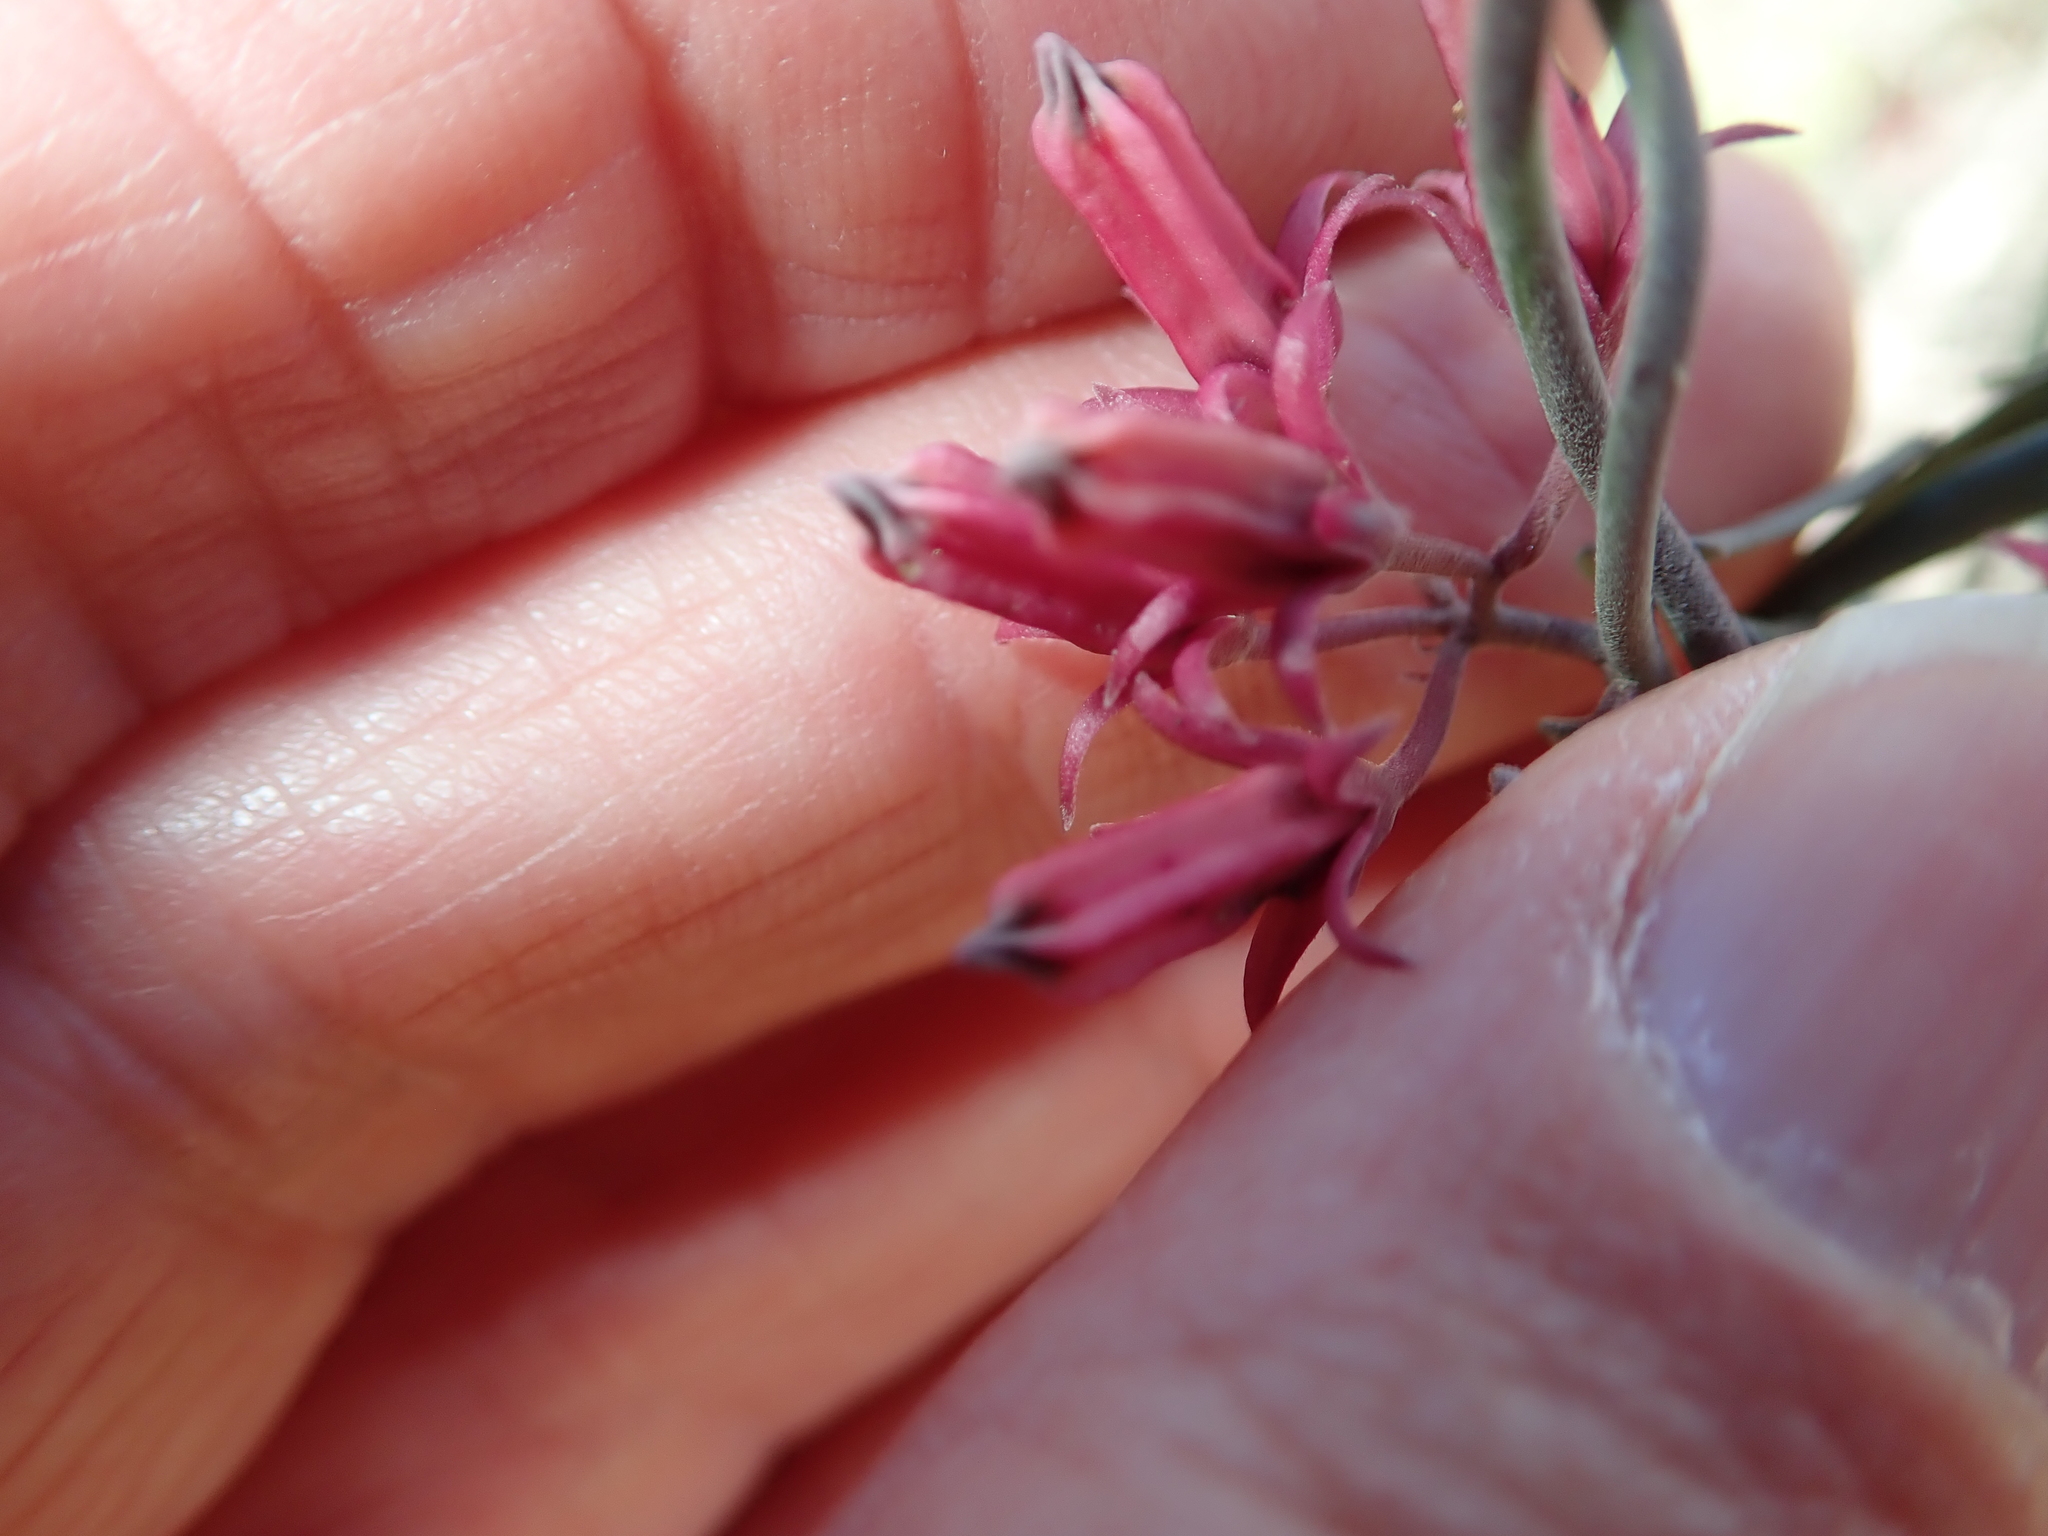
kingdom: Plantae
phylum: Tracheophyta
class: Magnoliopsida
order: Gentianales
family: Apocynaceae
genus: Microloma
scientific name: Microloma sagittatum
